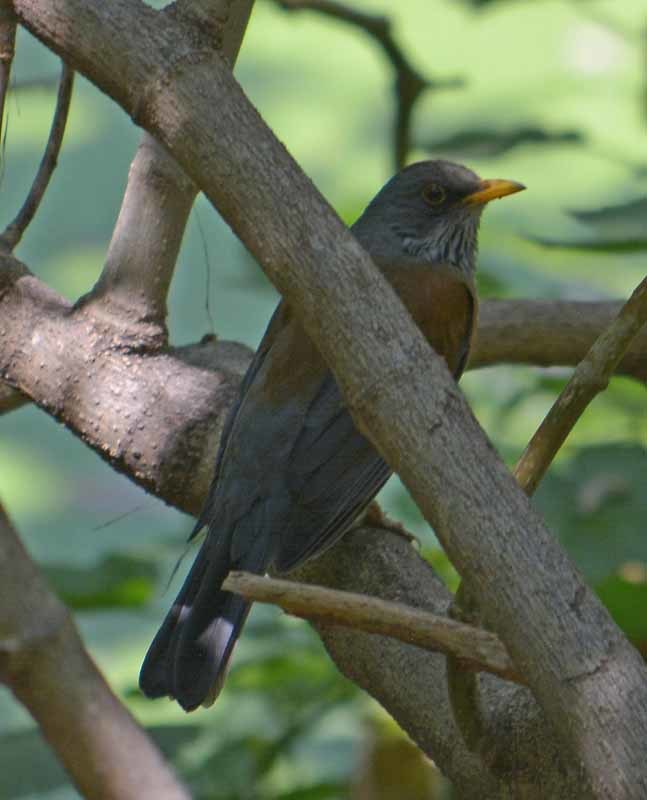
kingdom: Animalia
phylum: Chordata
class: Aves
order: Passeriformes
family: Turdidae
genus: Turdus
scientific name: Turdus rufopalliatus
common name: Rufous-backed robin
